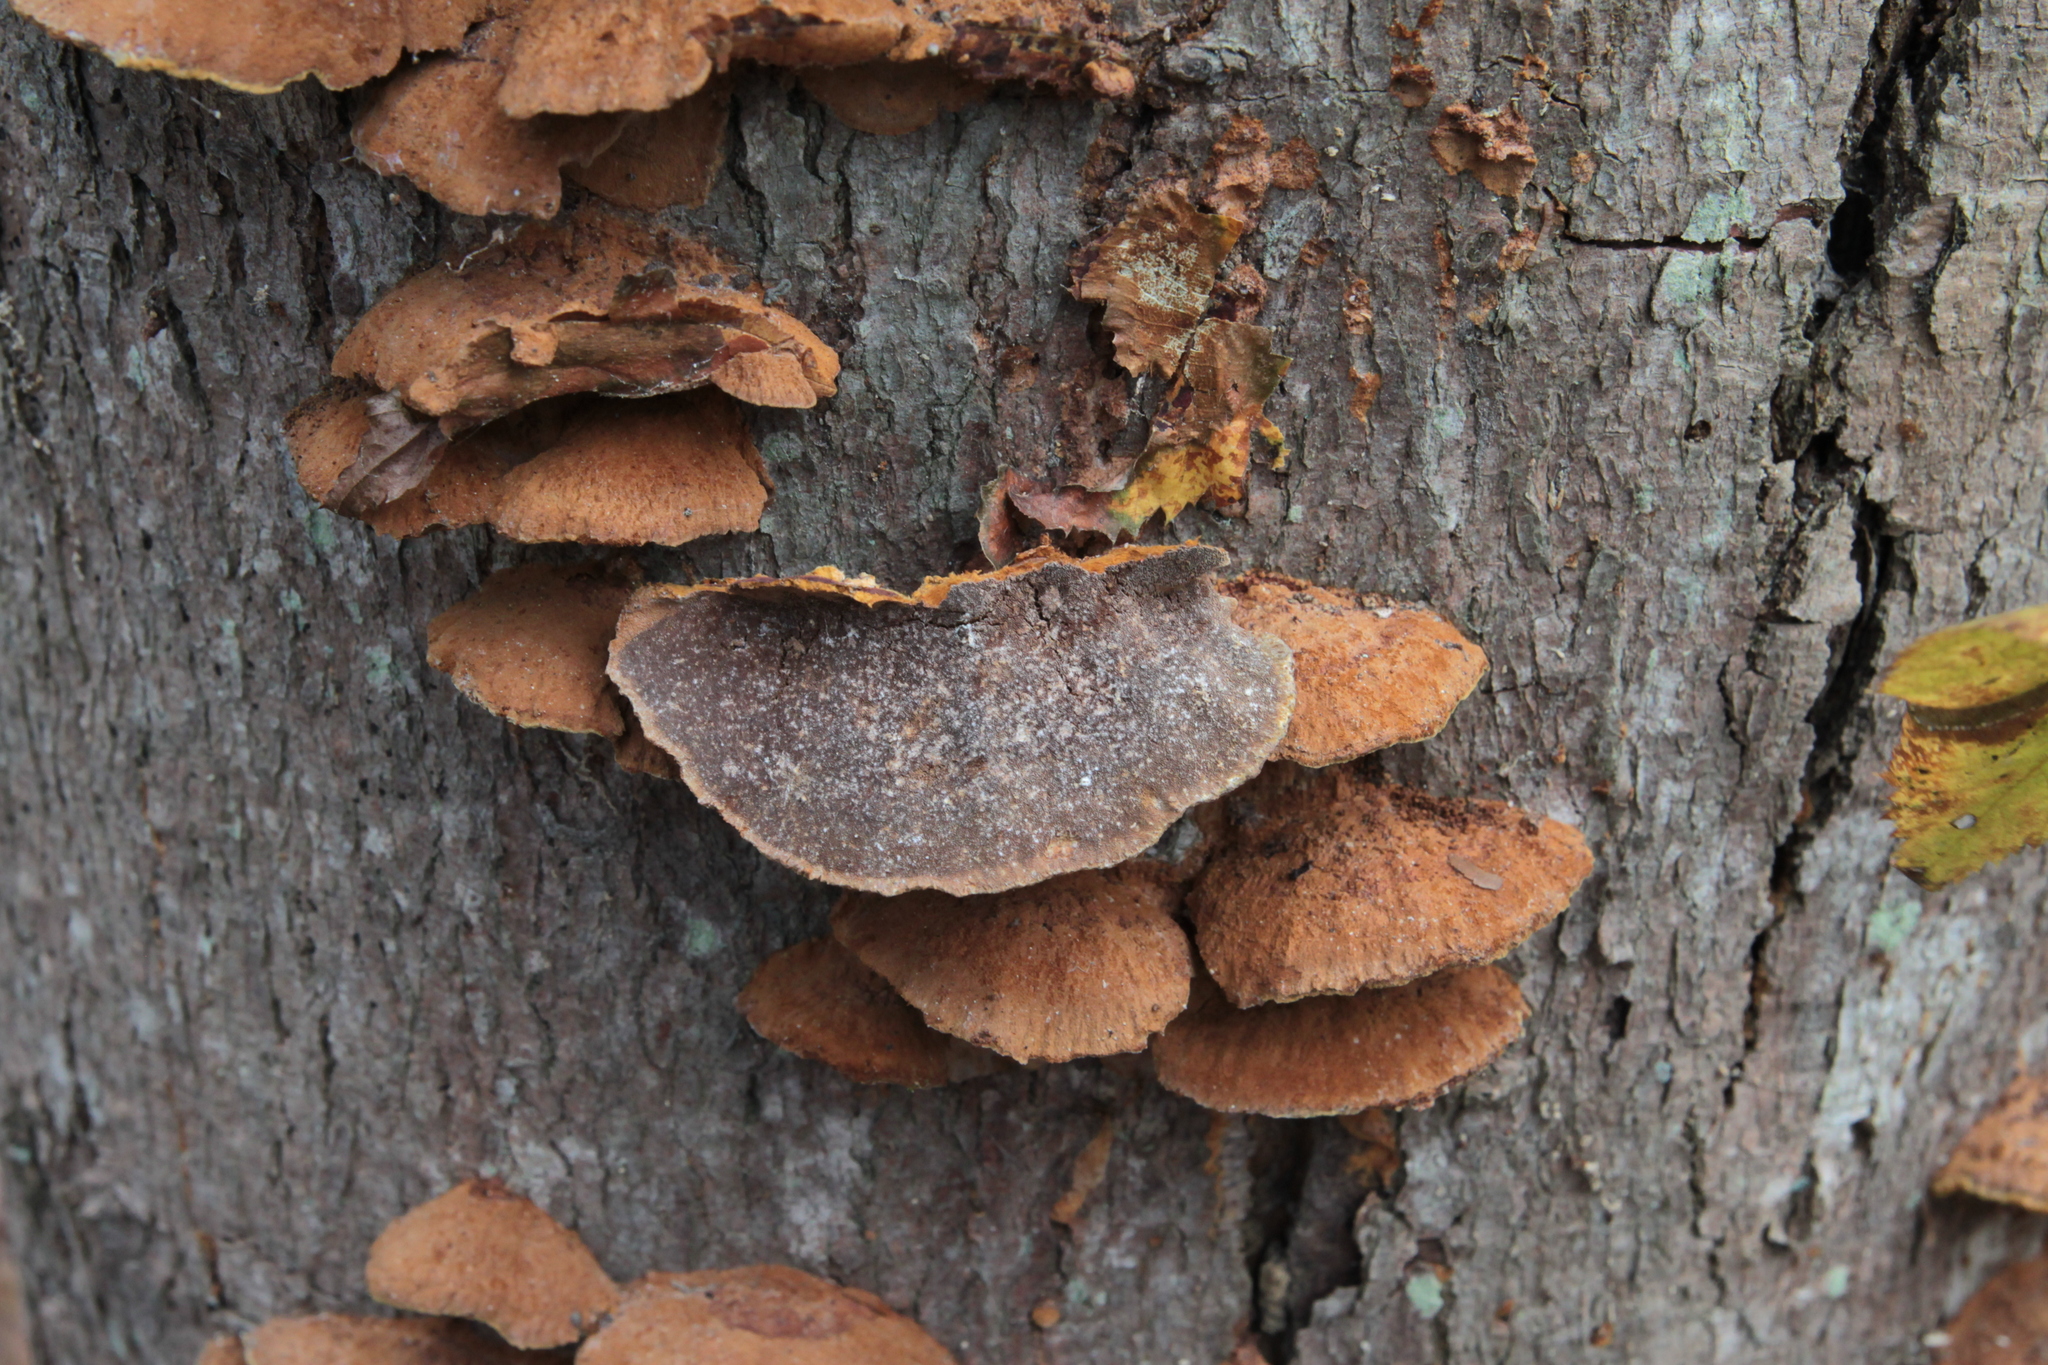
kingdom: Fungi
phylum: Basidiomycota
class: Agaricomycetes
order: Hymenochaetales
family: Hymenochaetaceae
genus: Phellinus
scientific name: Phellinus gilvus
